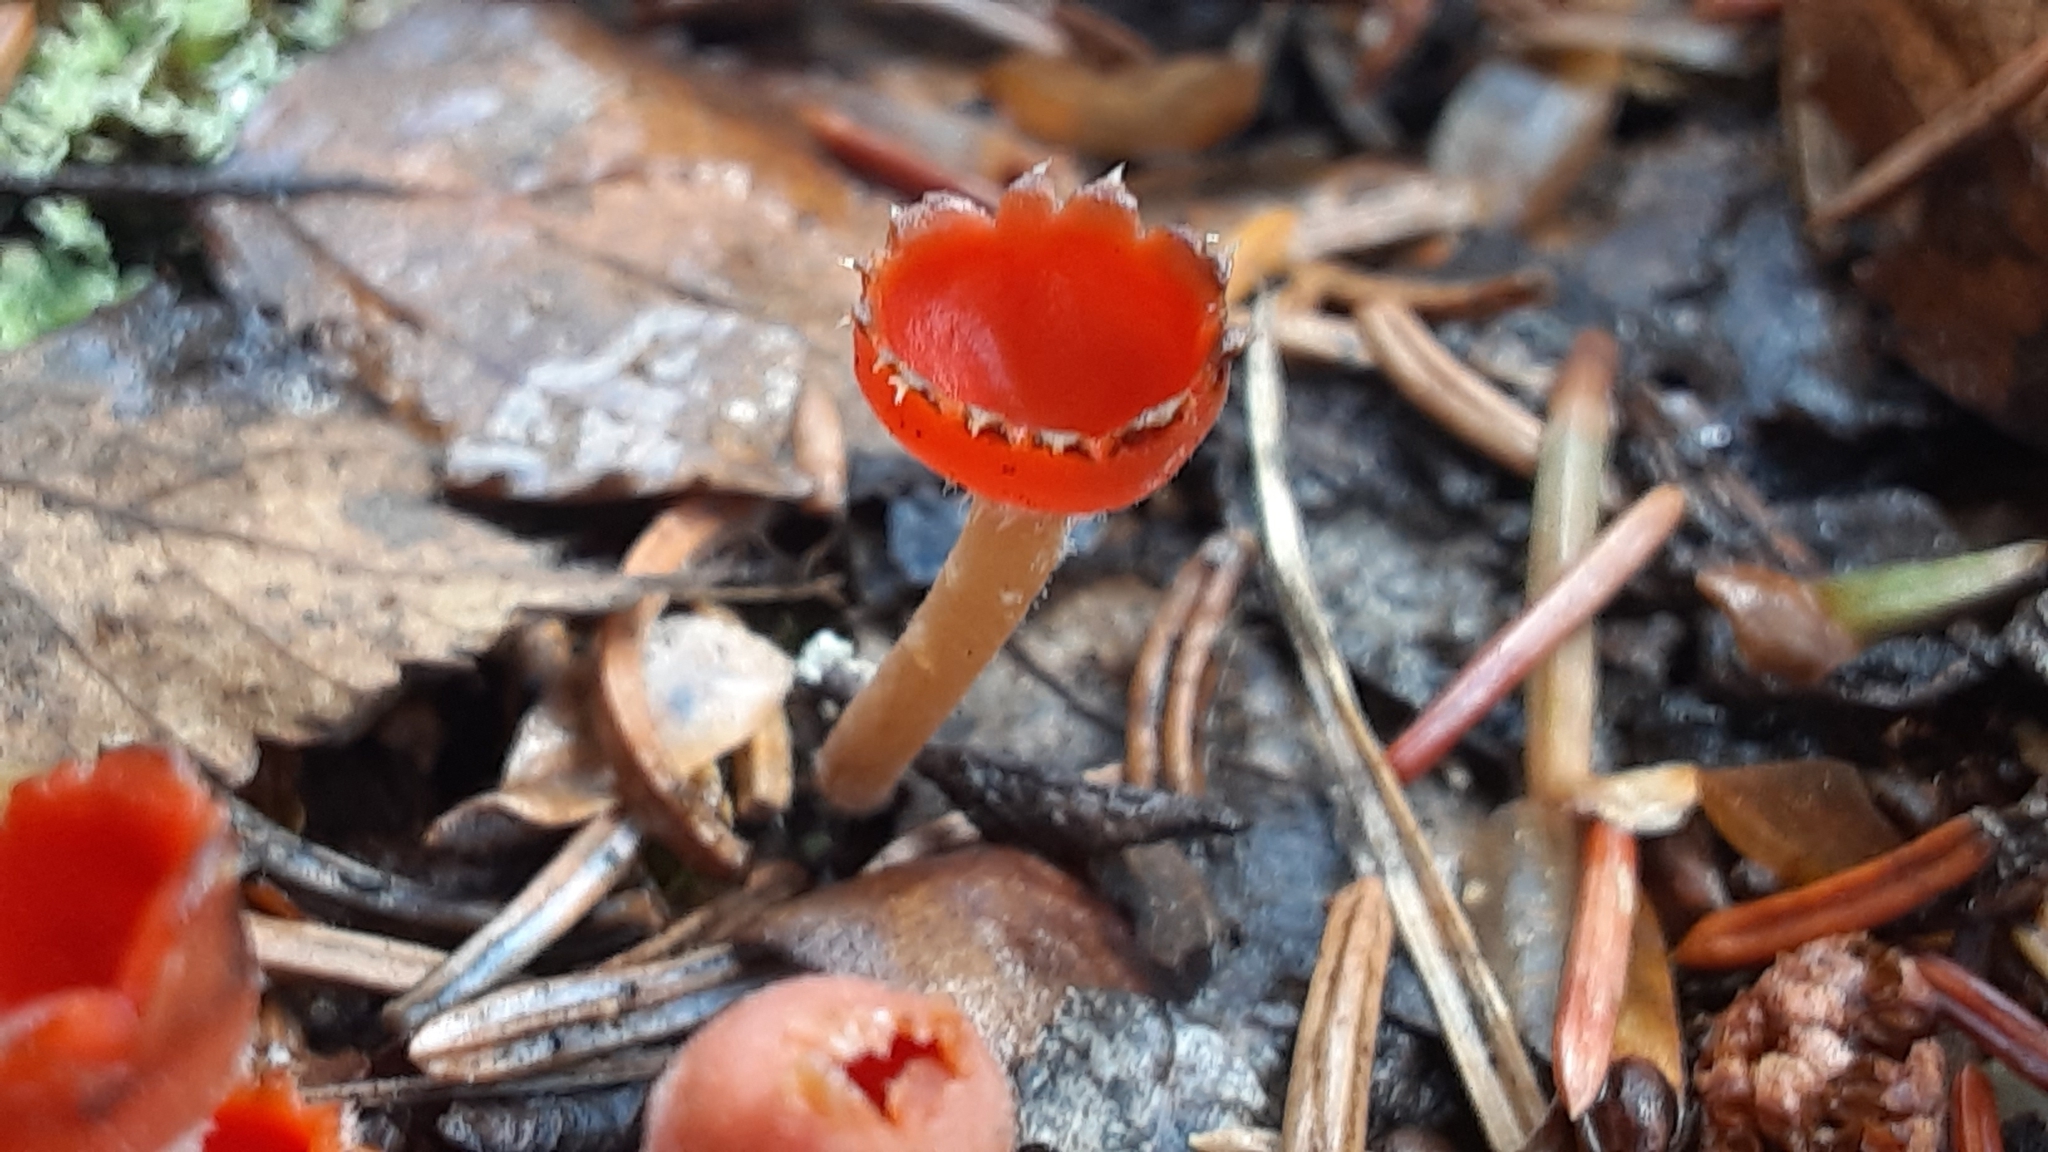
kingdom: Fungi
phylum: Ascomycota
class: Pezizomycetes
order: Pezizales
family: Sarcoscyphaceae
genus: Microstoma
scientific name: Microstoma protractum
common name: Rosy goblet
